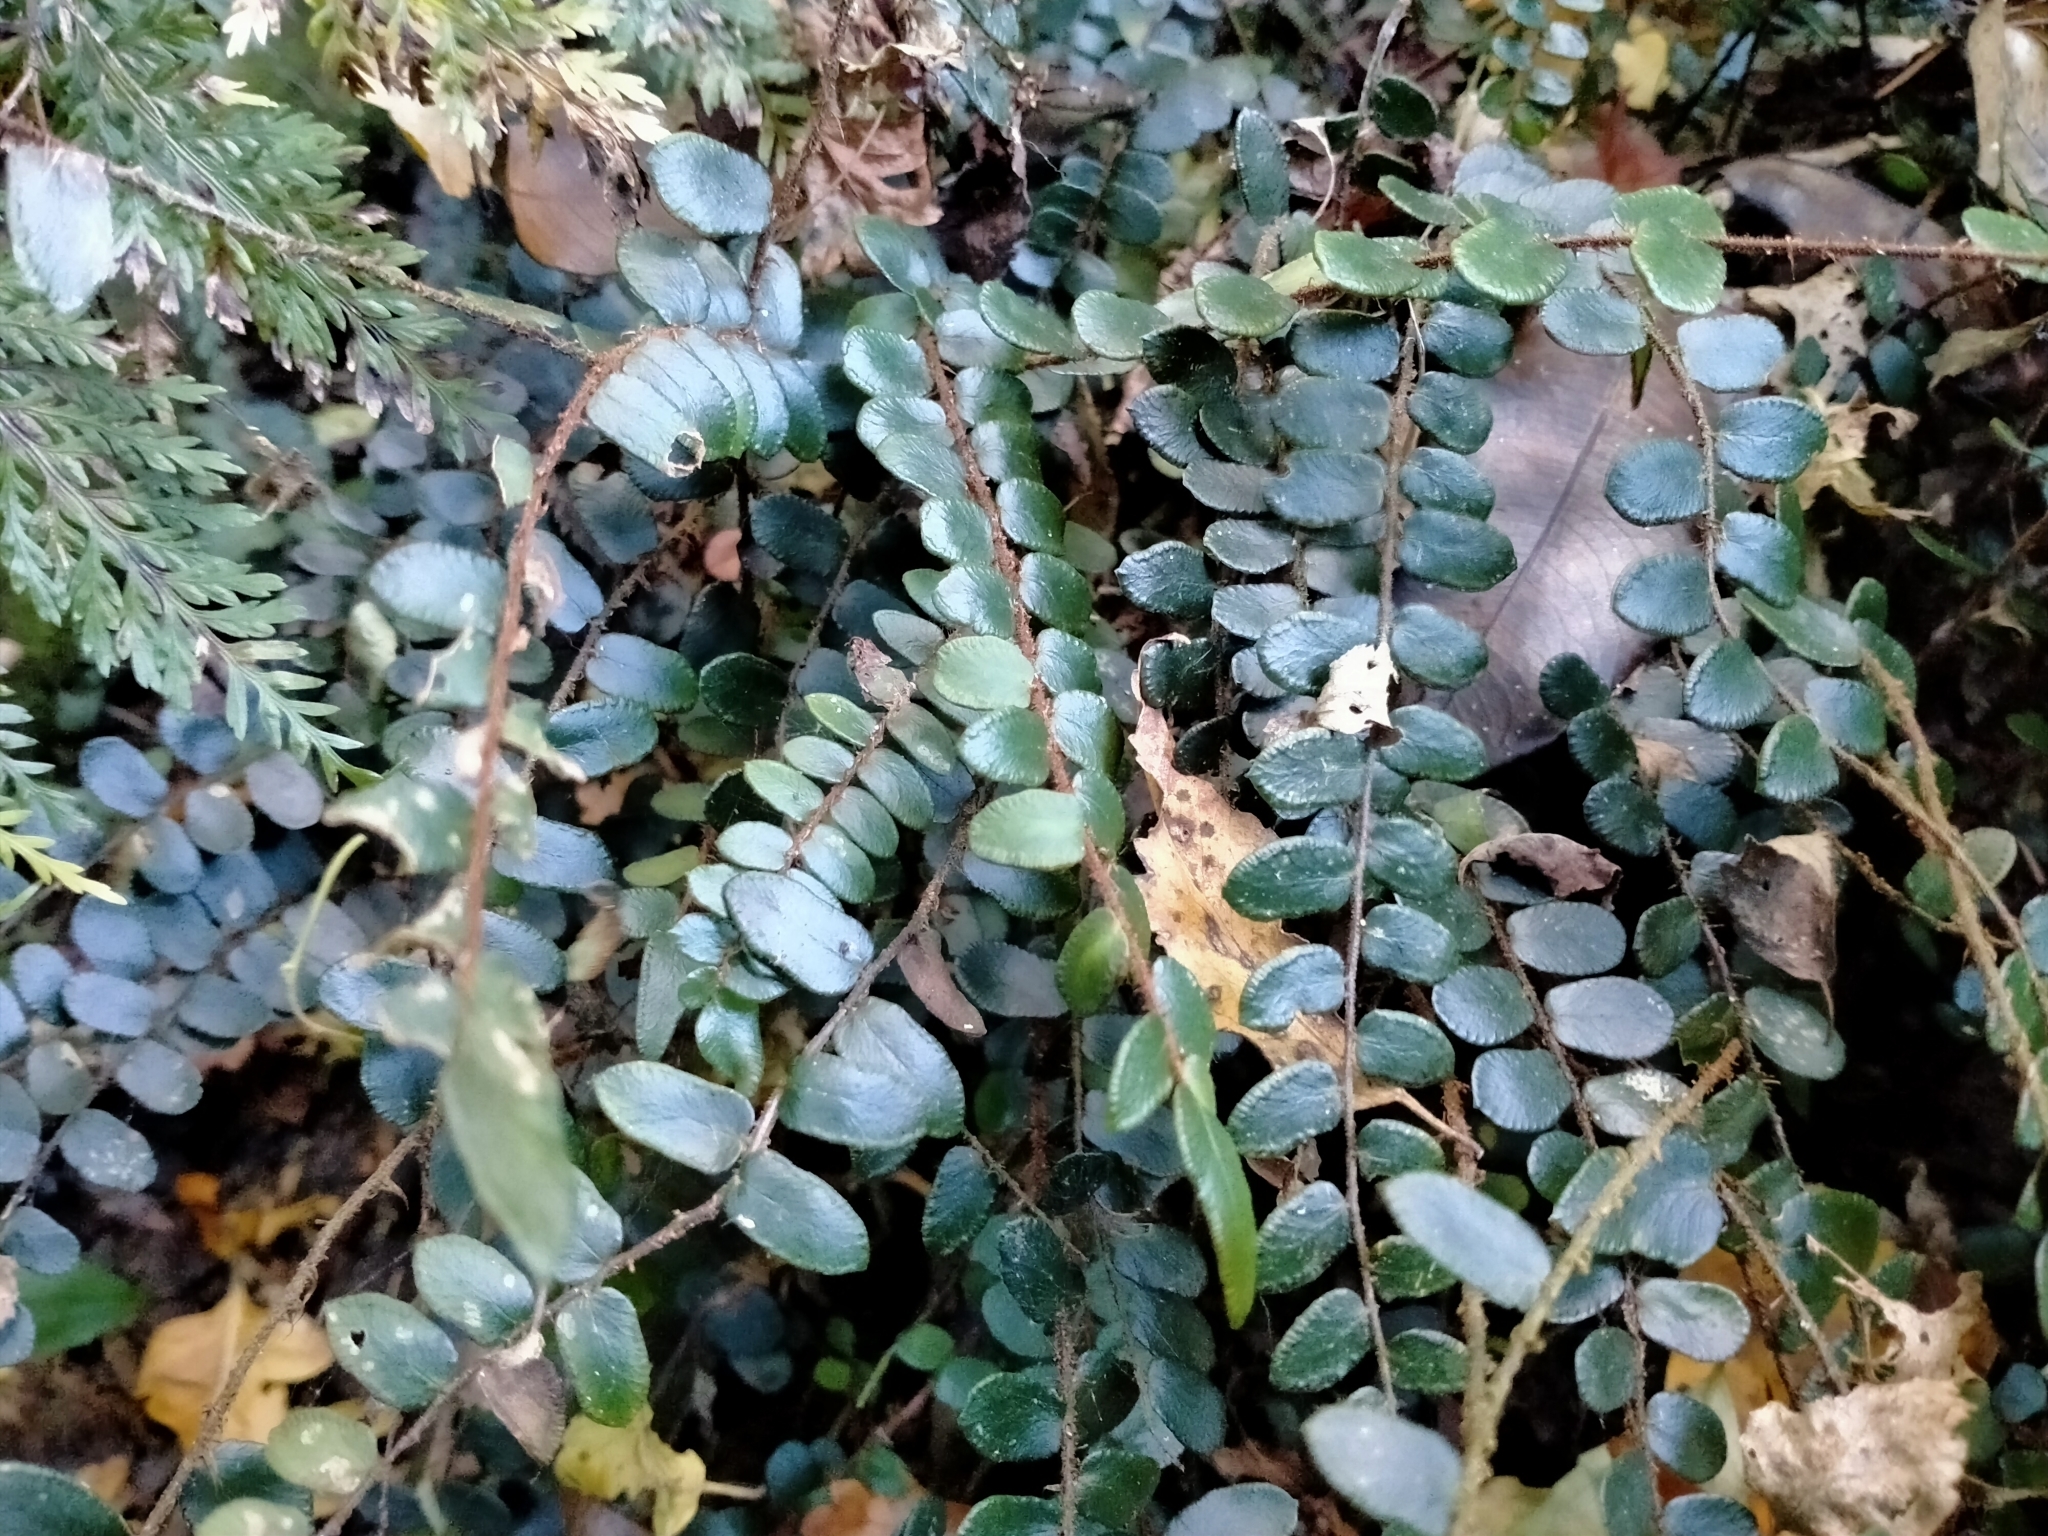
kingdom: Plantae
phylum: Tracheophyta
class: Polypodiopsida
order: Polypodiales
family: Pteridaceae
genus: Pellaea
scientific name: Pellaea rotundifolia
